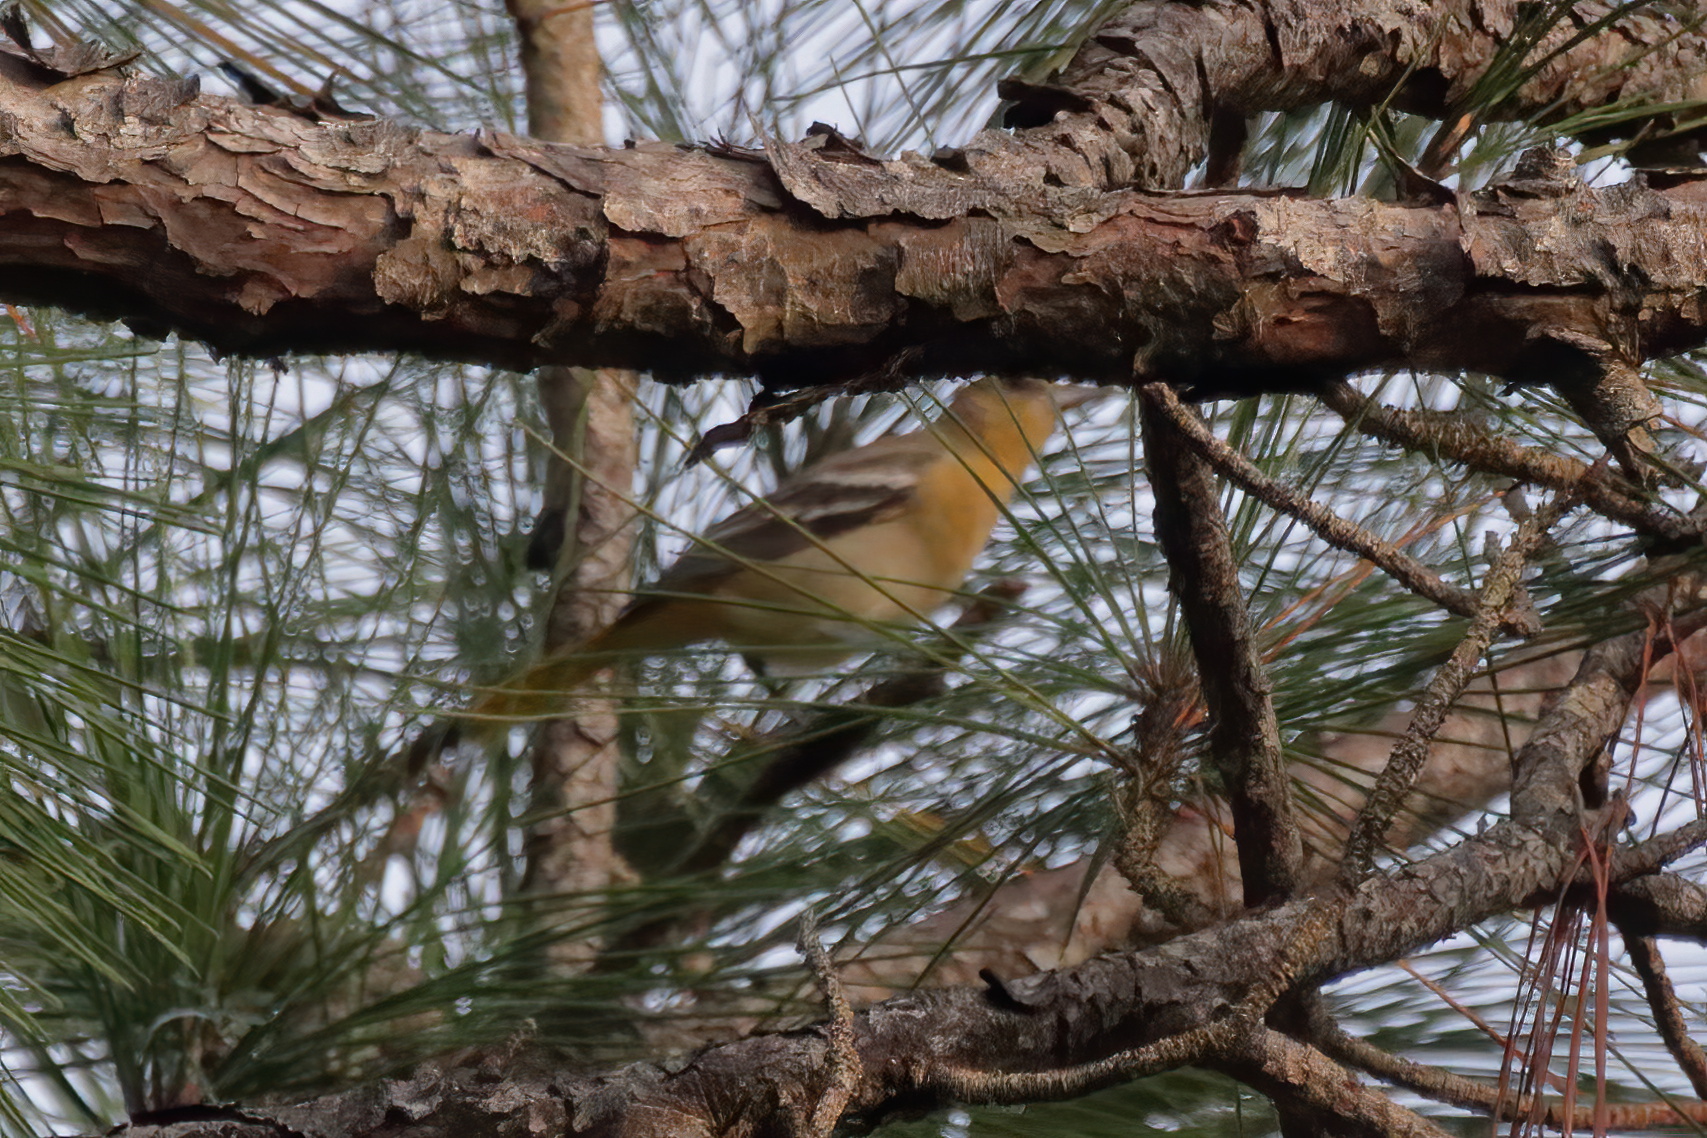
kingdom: Animalia
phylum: Chordata
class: Aves
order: Passeriformes
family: Parulidae
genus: Setophaga
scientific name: Setophaga pinus
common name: Pine warbler
